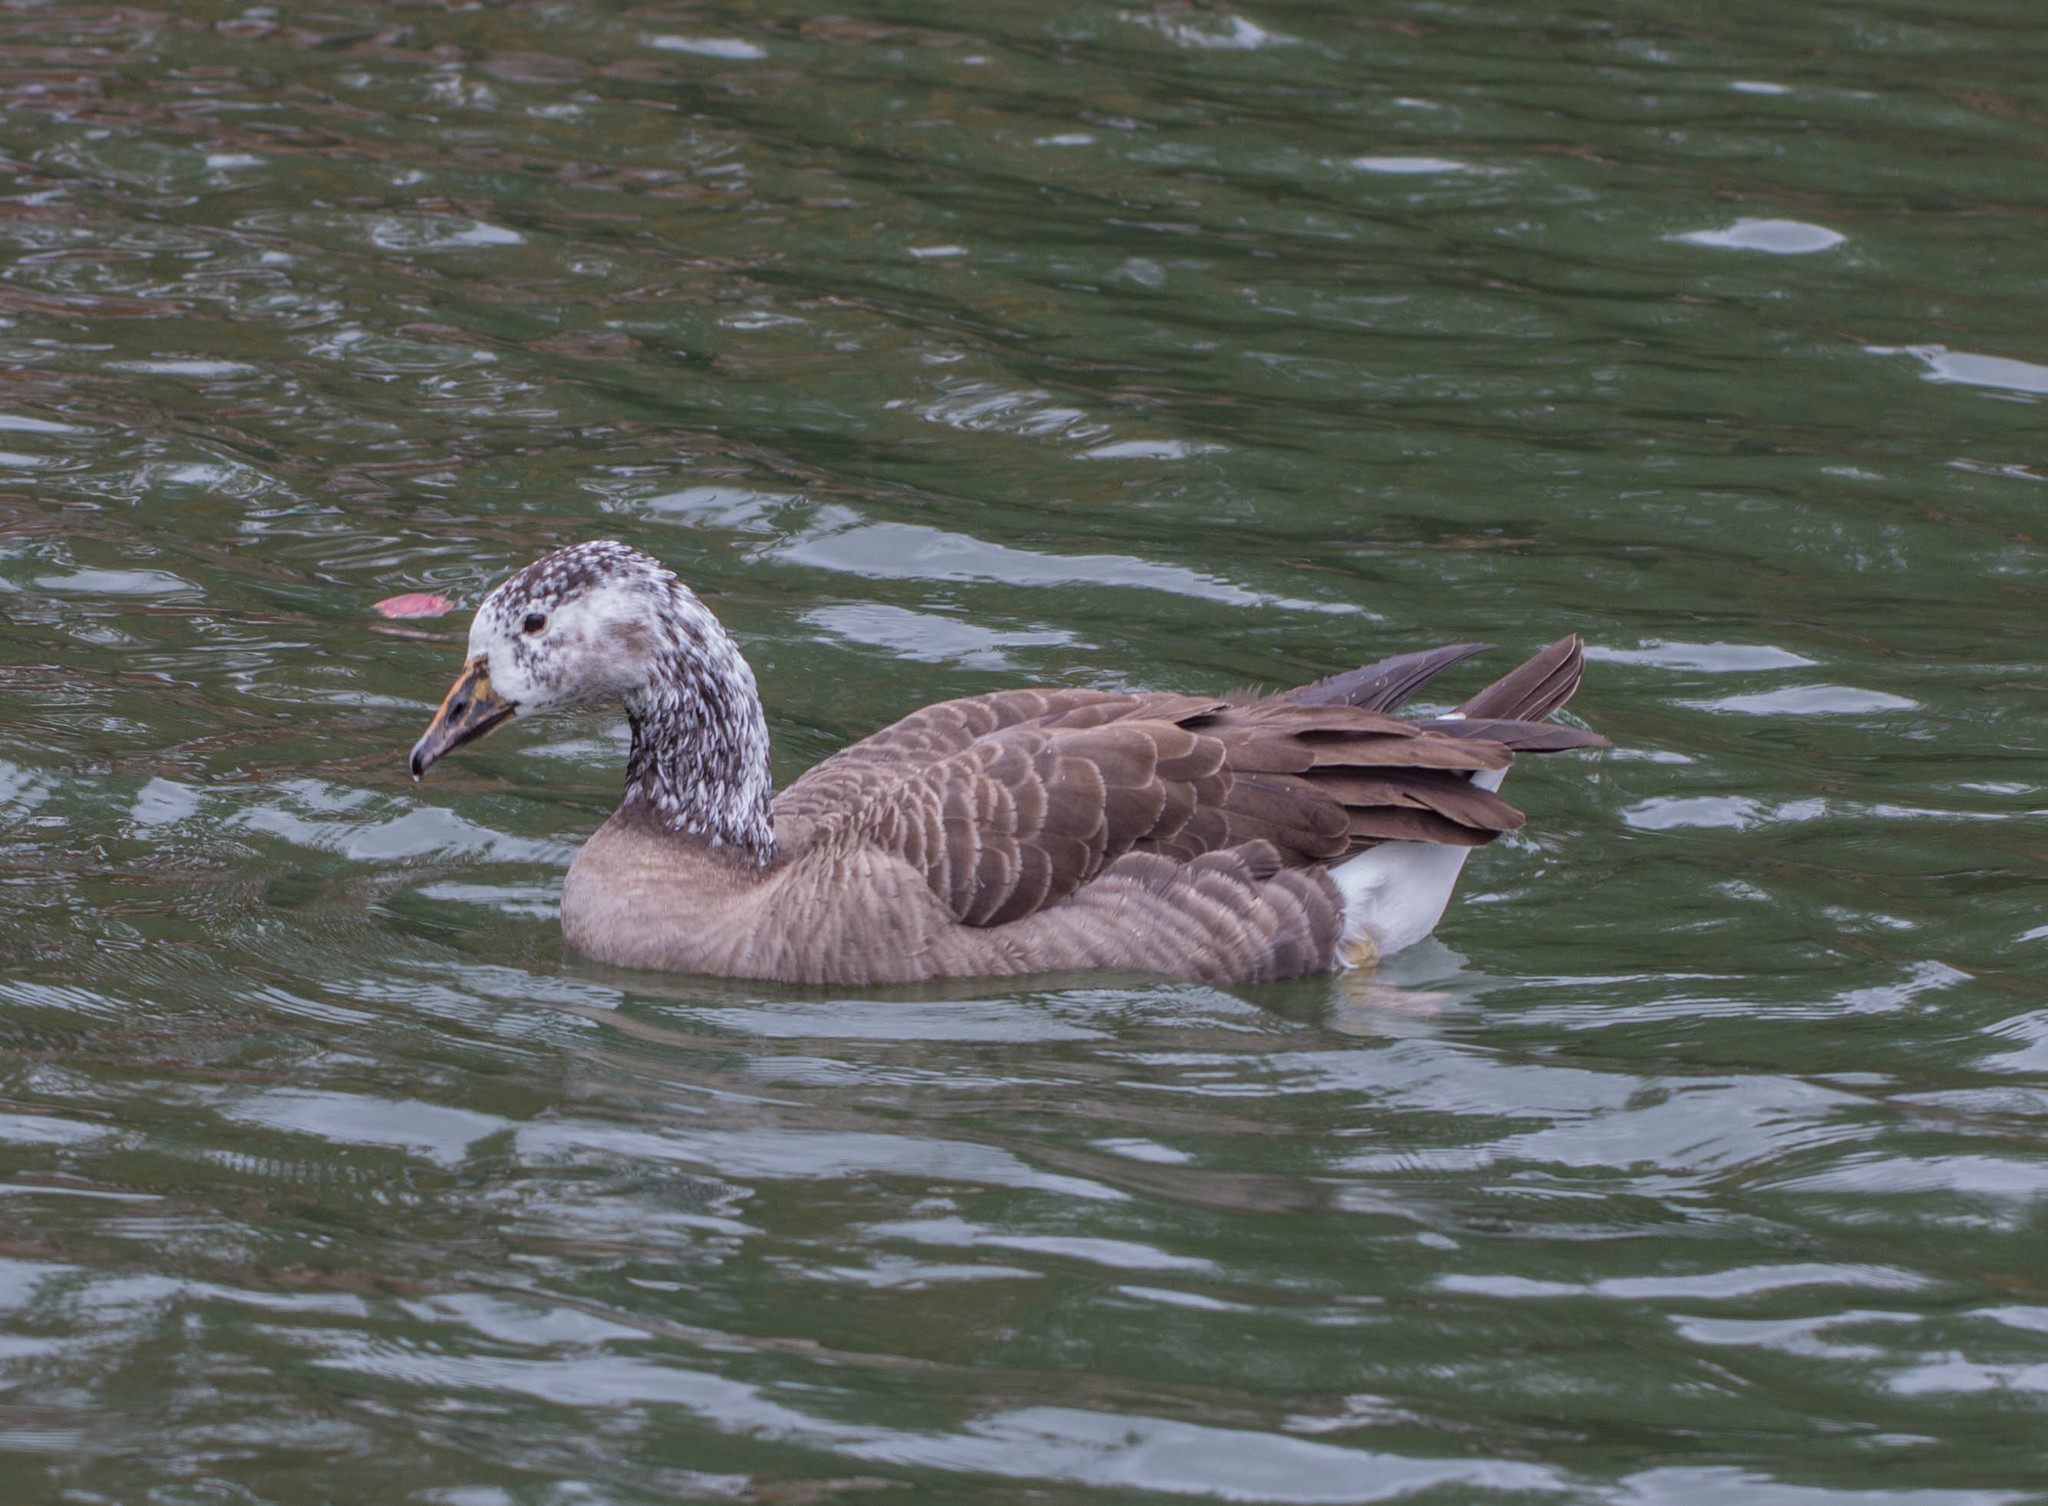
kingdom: Animalia
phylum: Chordata
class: Aves
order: Anseriformes
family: Anatidae
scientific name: Anatidae
